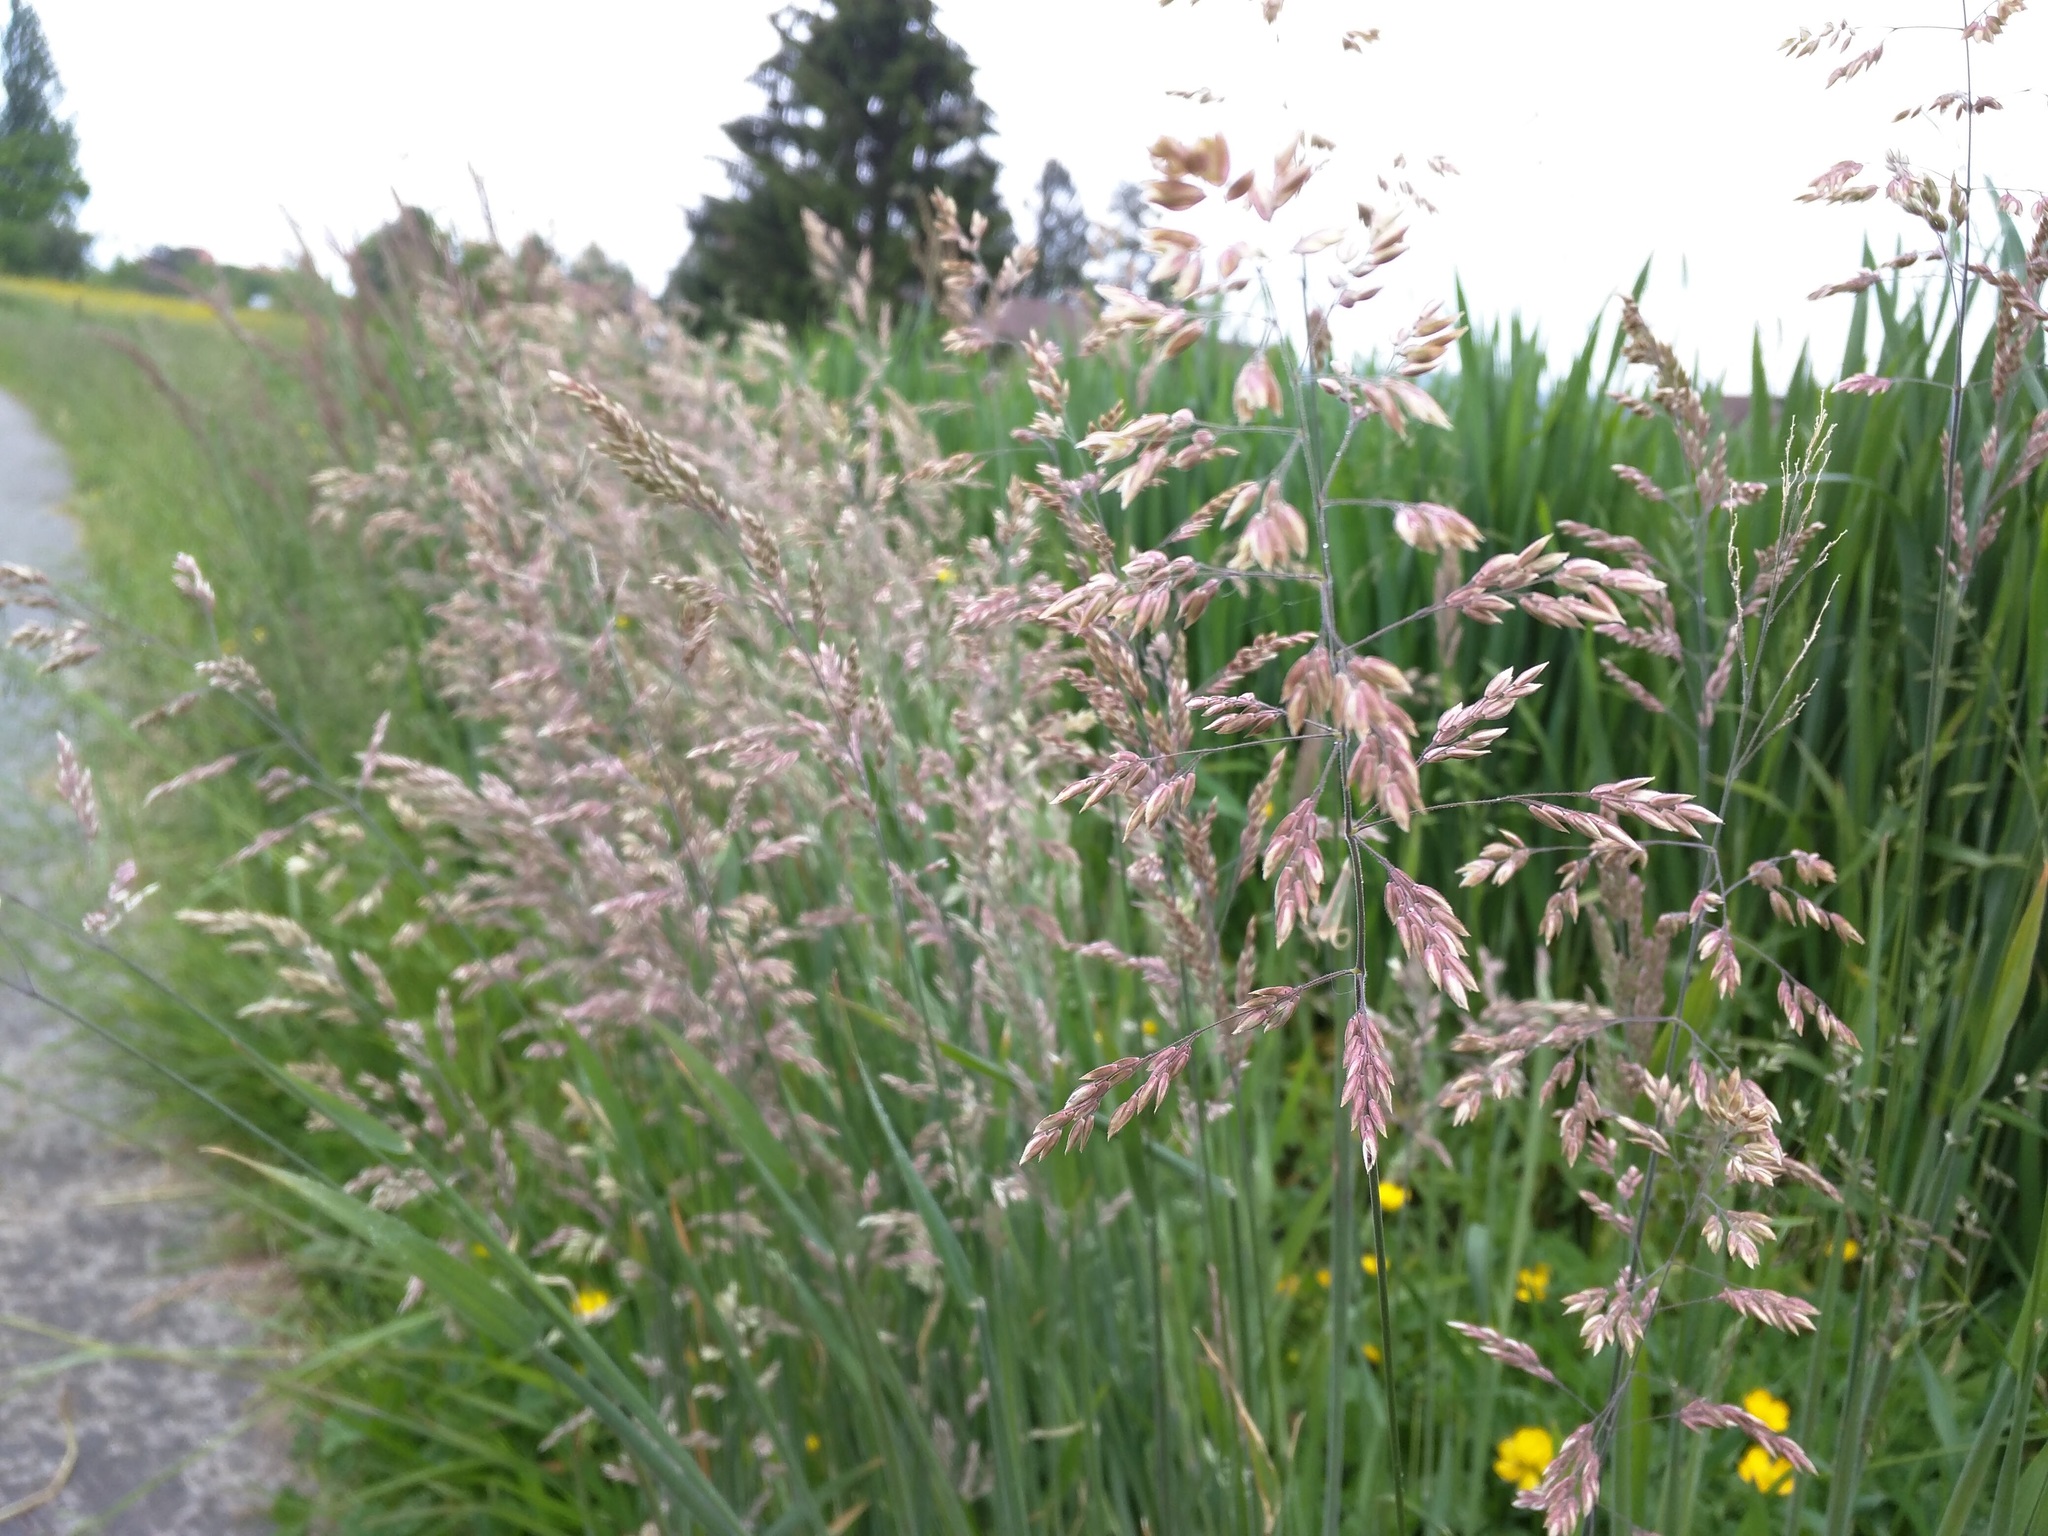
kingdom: Plantae
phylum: Tracheophyta
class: Liliopsida
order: Poales
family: Poaceae
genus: Holcus
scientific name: Holcus lanatus
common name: Yorkshire-fog
